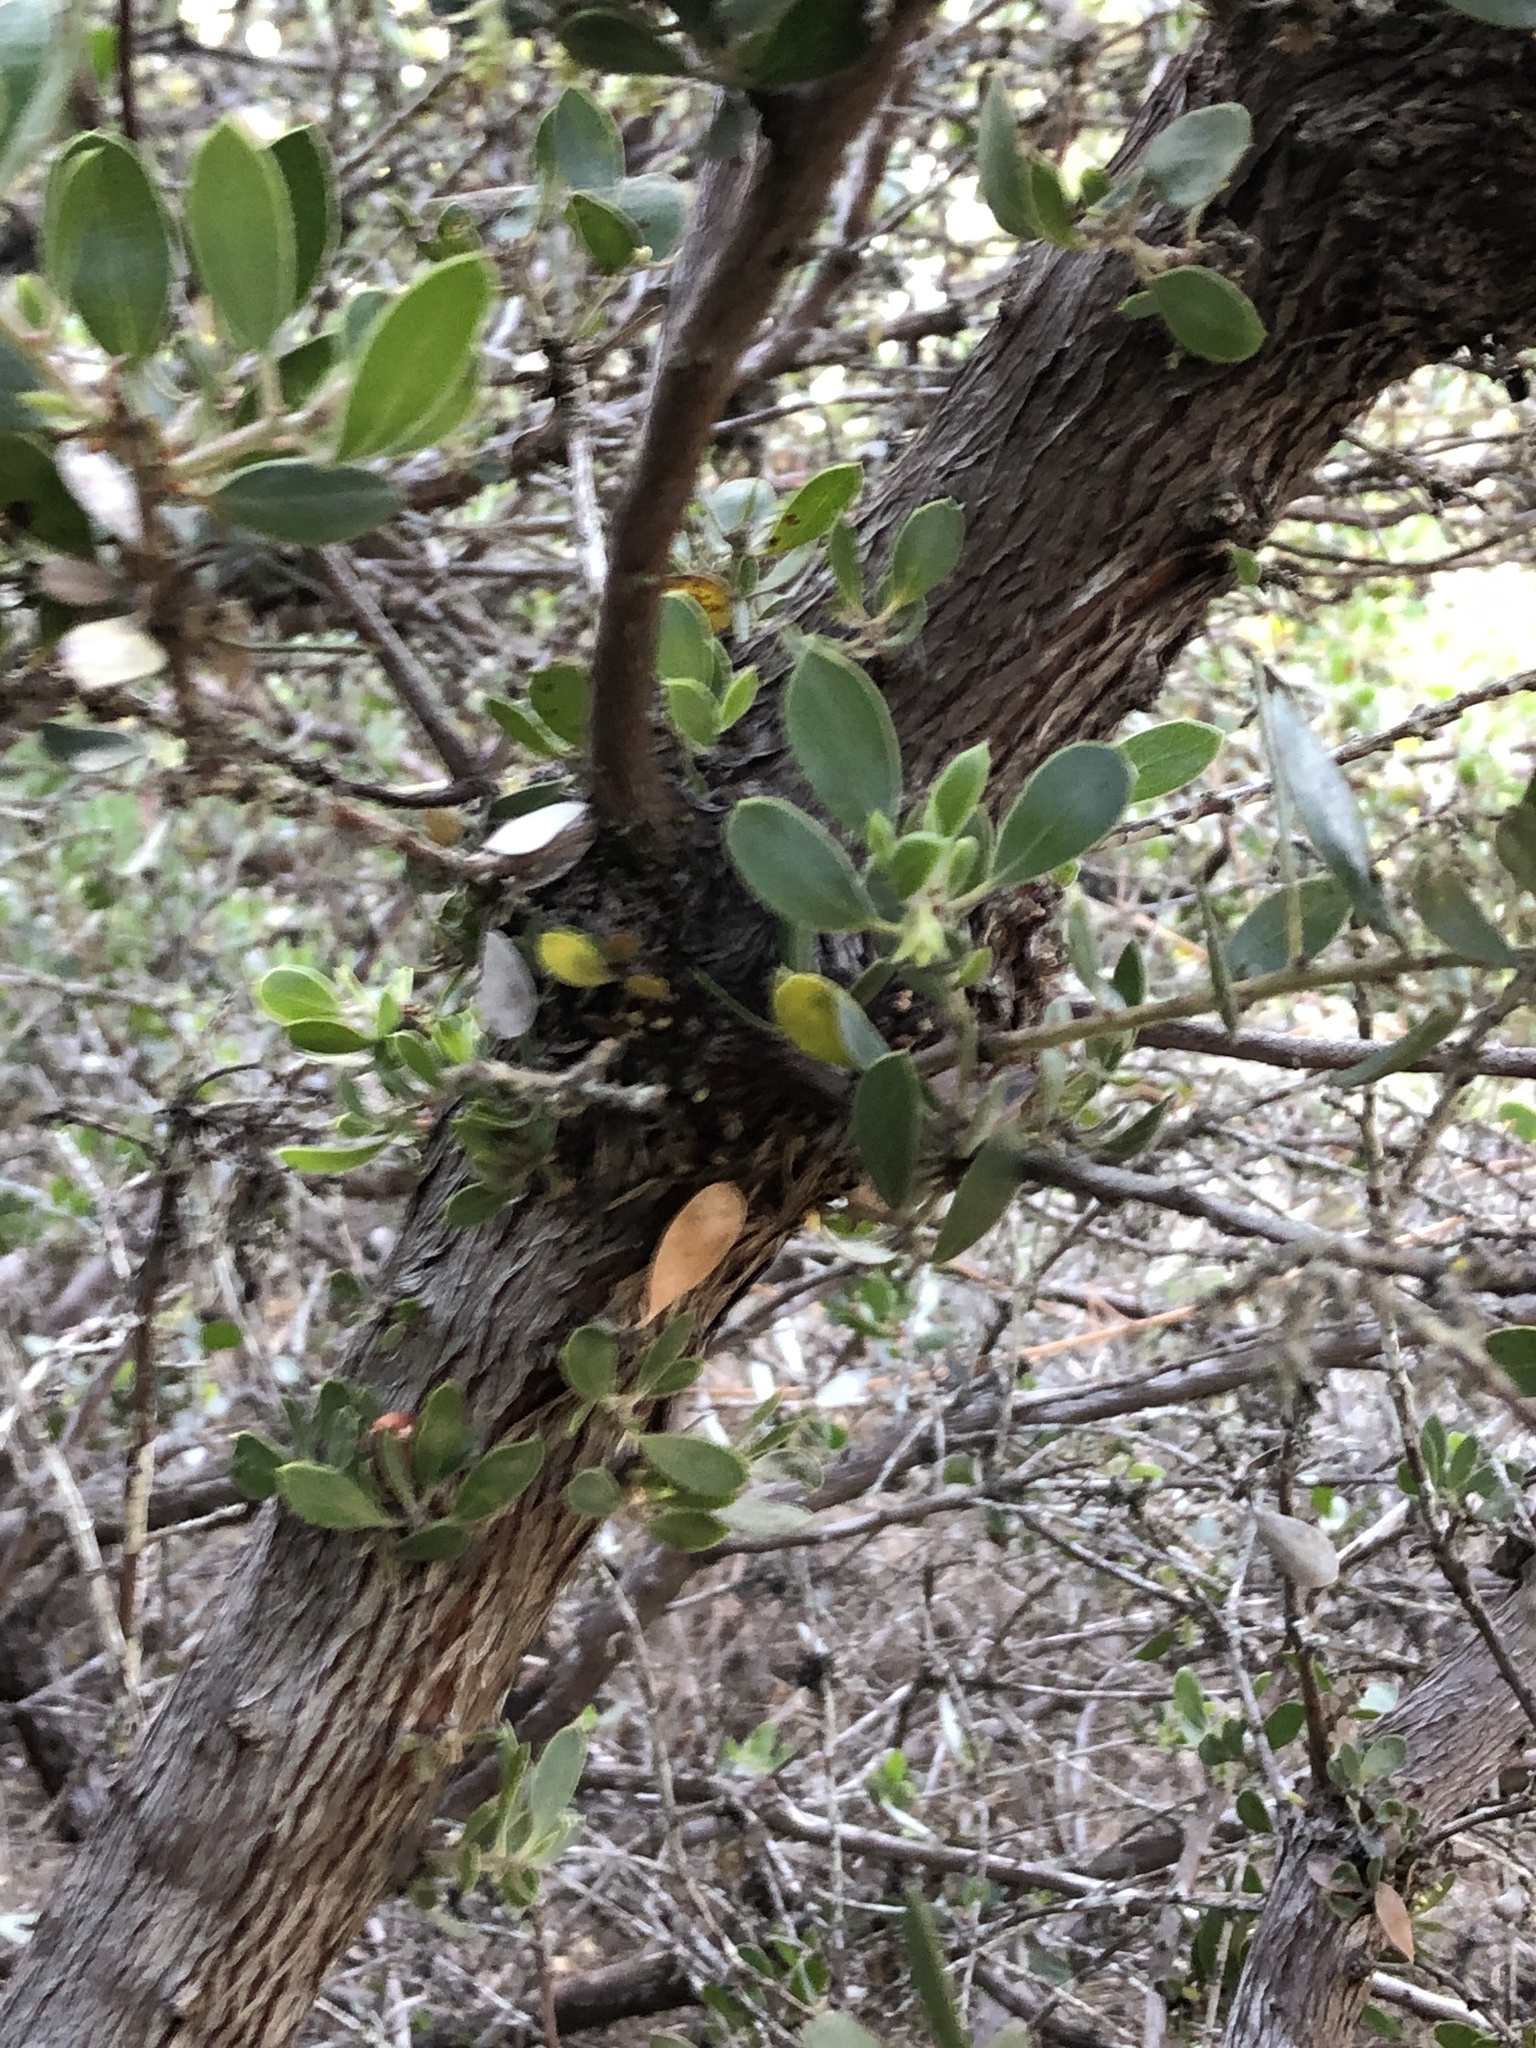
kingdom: Plantae
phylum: Tracheophyta
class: Magnoliopsida
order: Ericales
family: Ericaceae
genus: Arctostaphylos
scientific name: Arctostaphylos rudis
